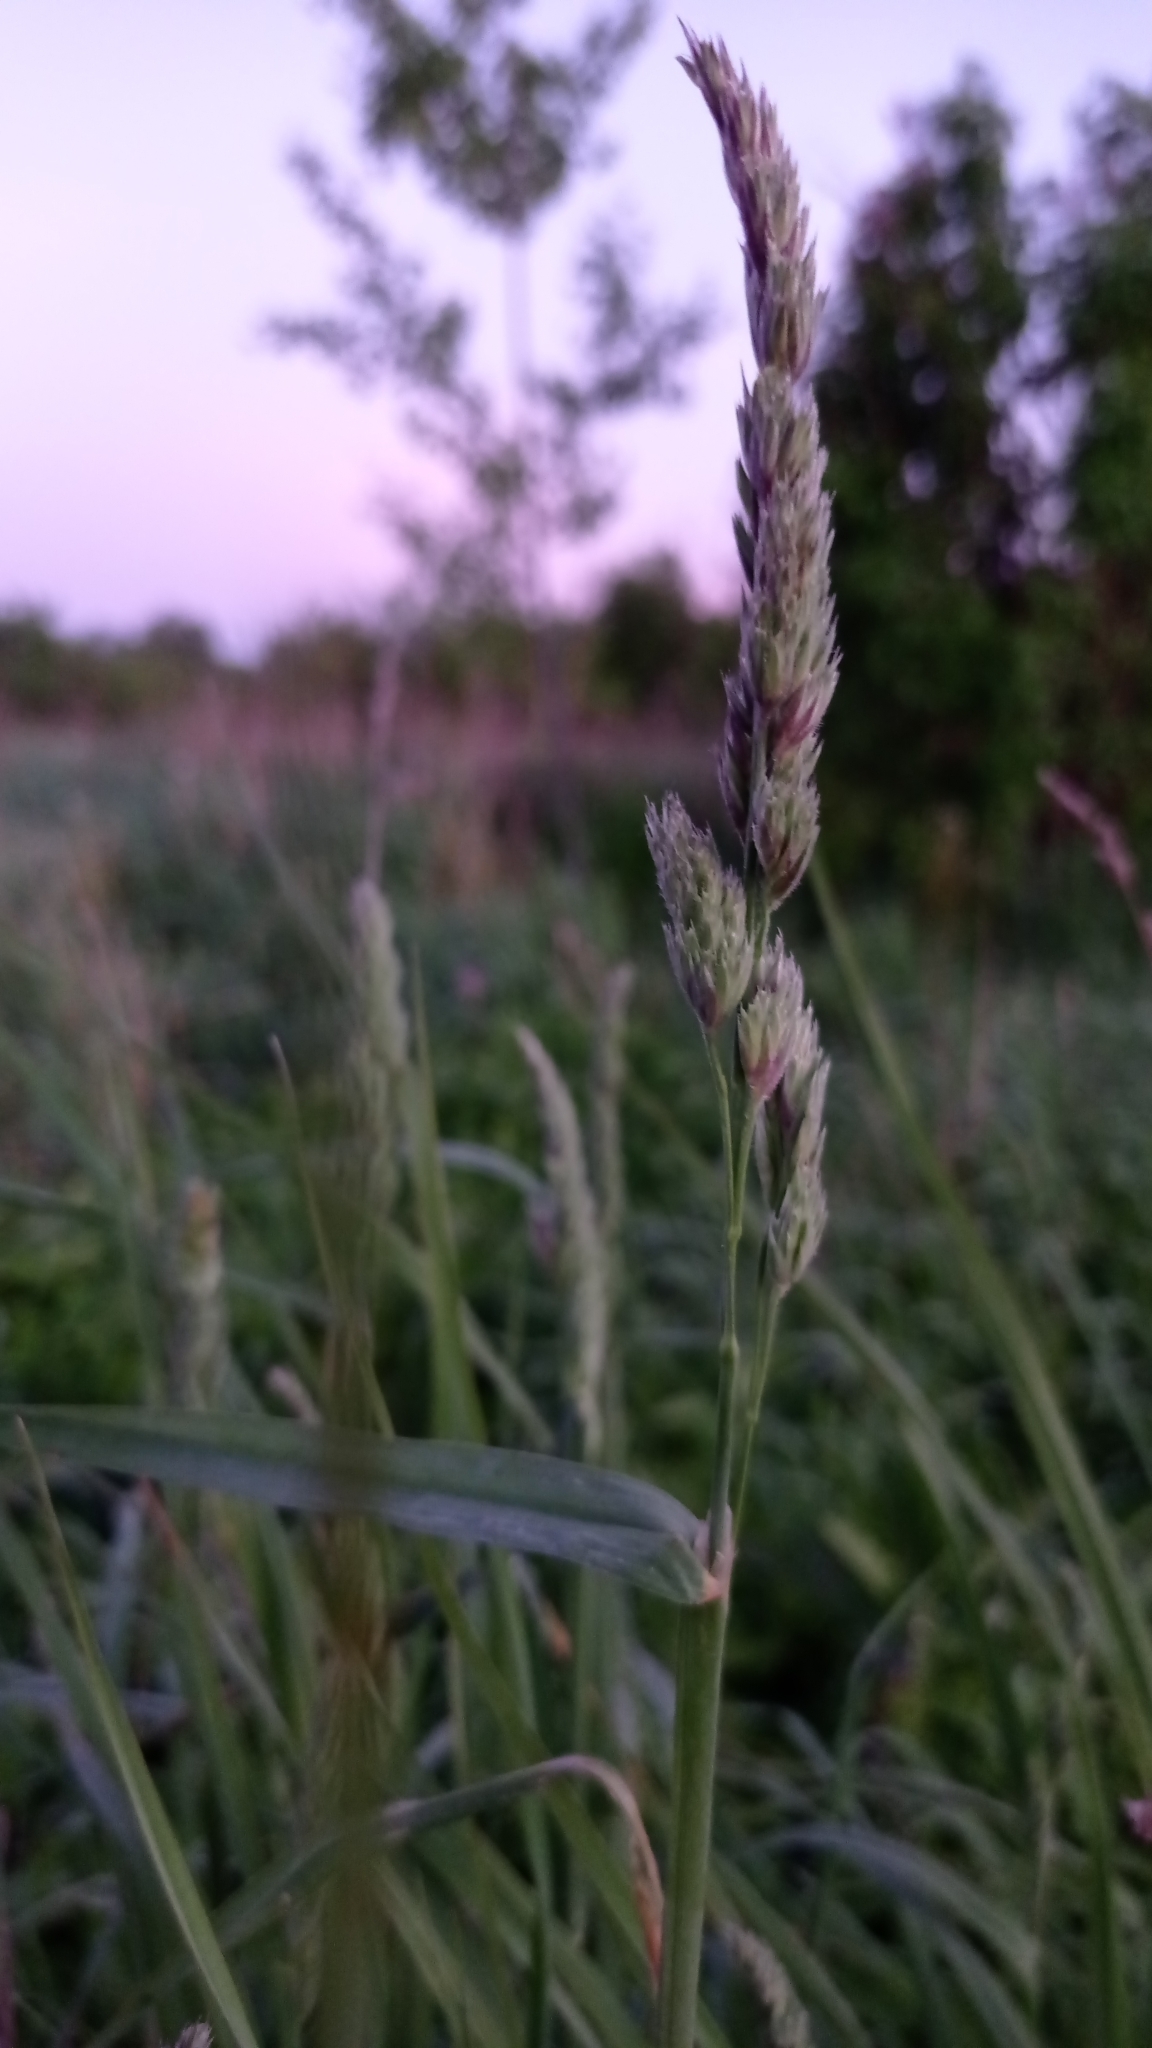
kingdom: Plantae
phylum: Tracheophyta
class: Liliopsida
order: Poales
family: Poaceae
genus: Dactylis
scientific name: Dactylis glomerata
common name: Orchardgrass
